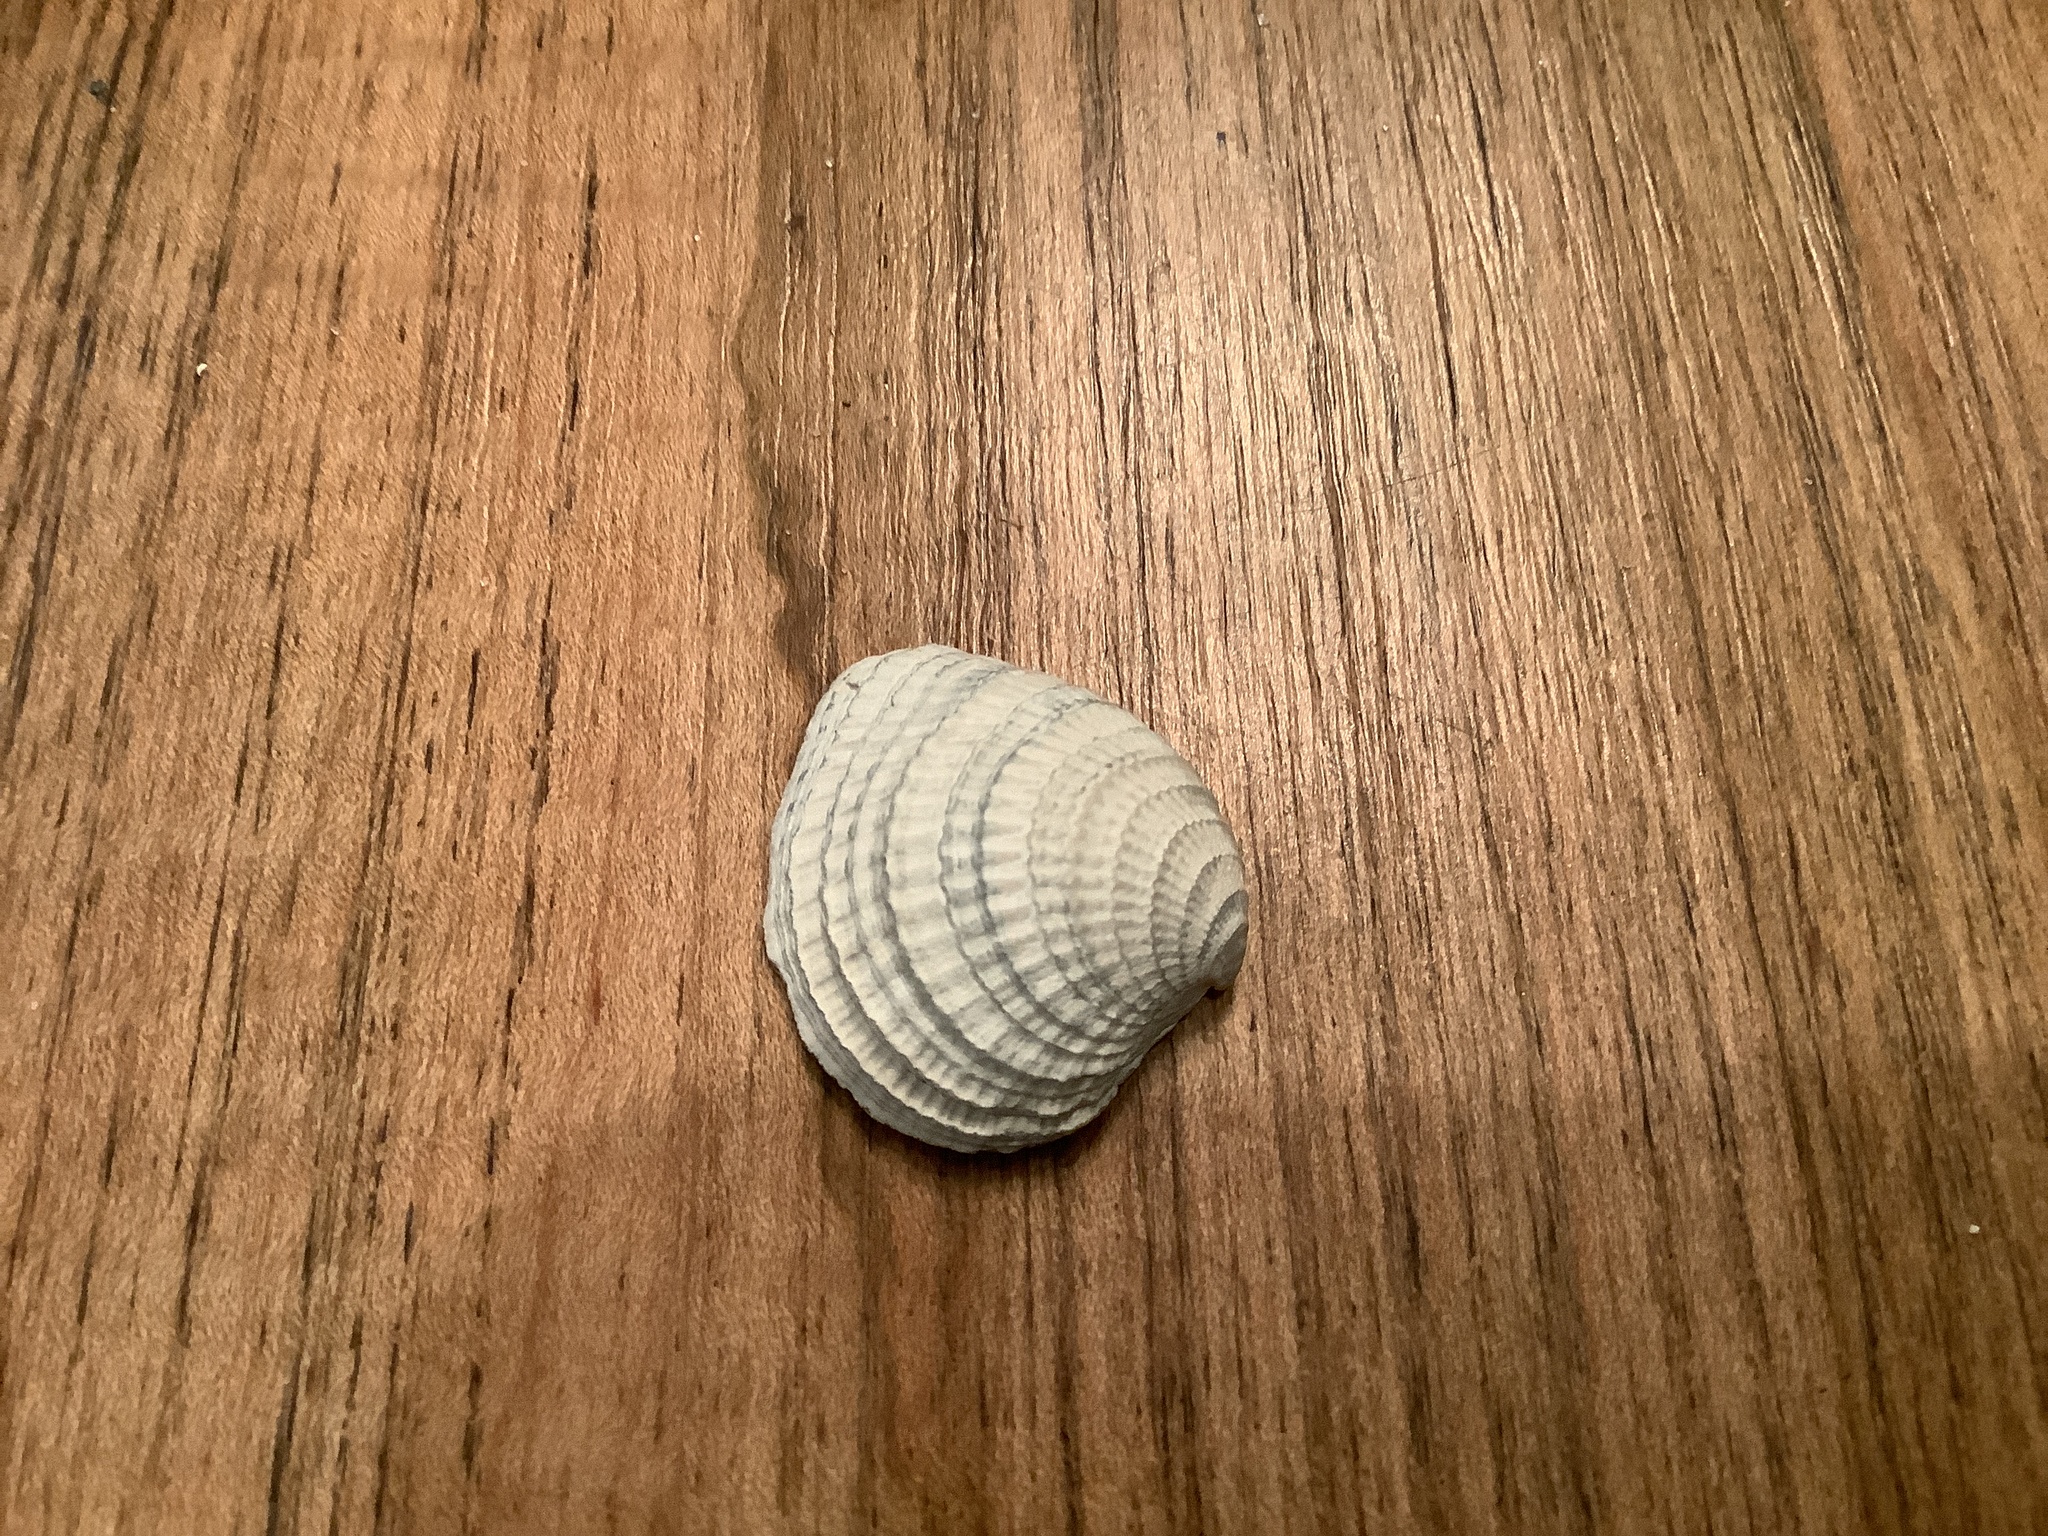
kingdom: Animalia
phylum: Mollusca
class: Bivalvia
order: Venerida
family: Veneridae
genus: Chione
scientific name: Chione elevata
